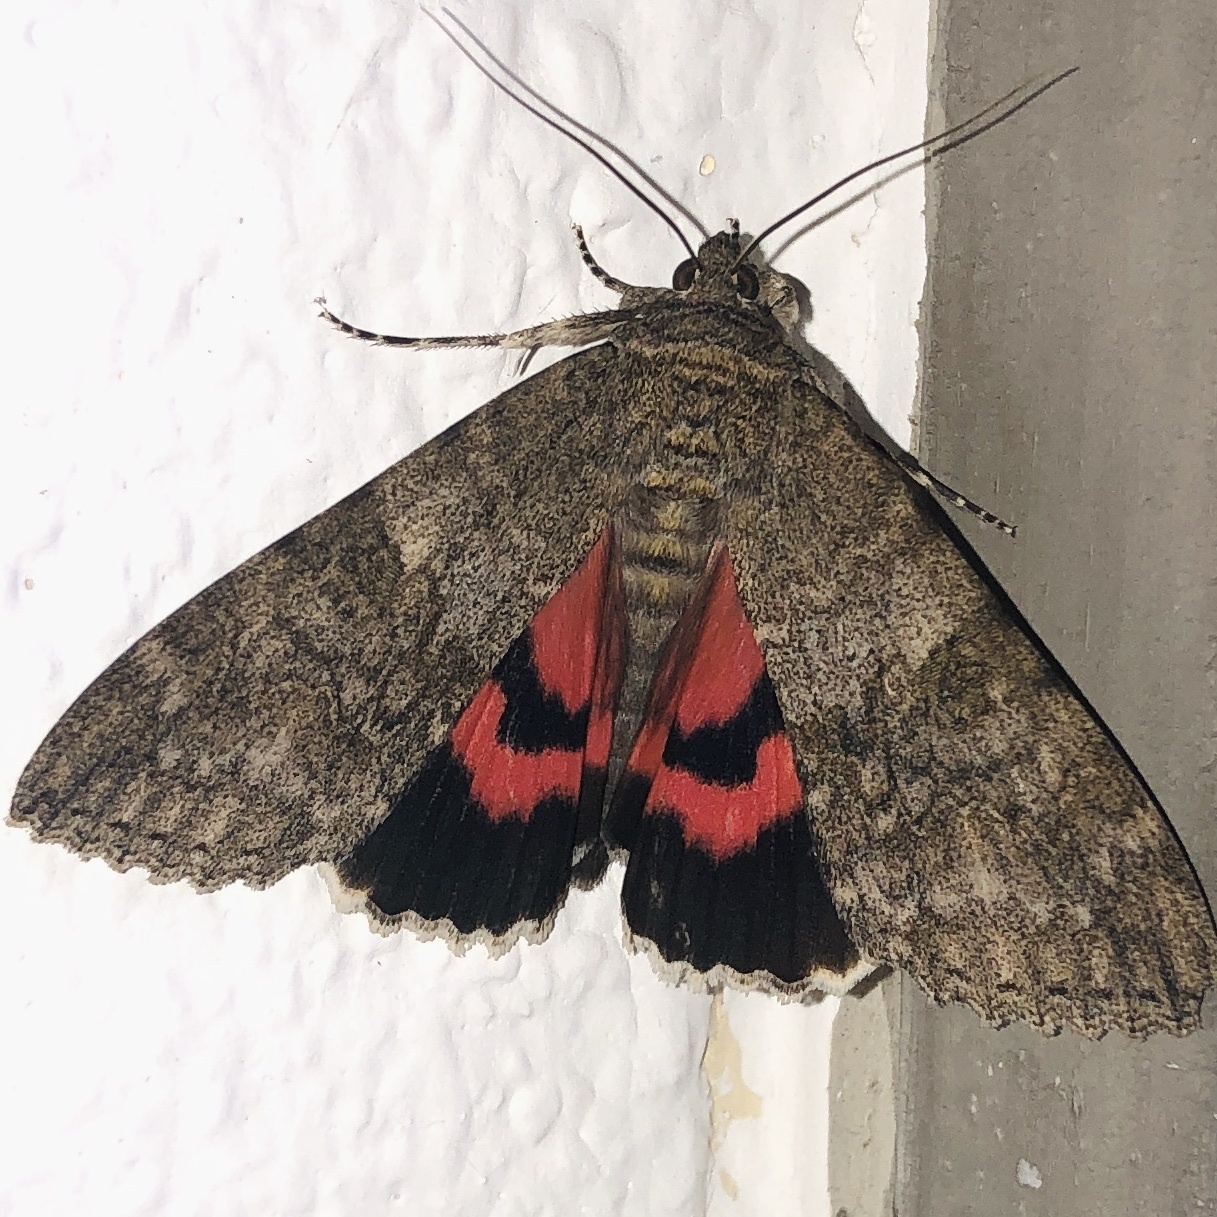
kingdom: Animalia
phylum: Arthropoda
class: Insecta
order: Lepidoptera
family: Erebidae
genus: Catocala
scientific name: Catocala nupta
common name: Red underwing
